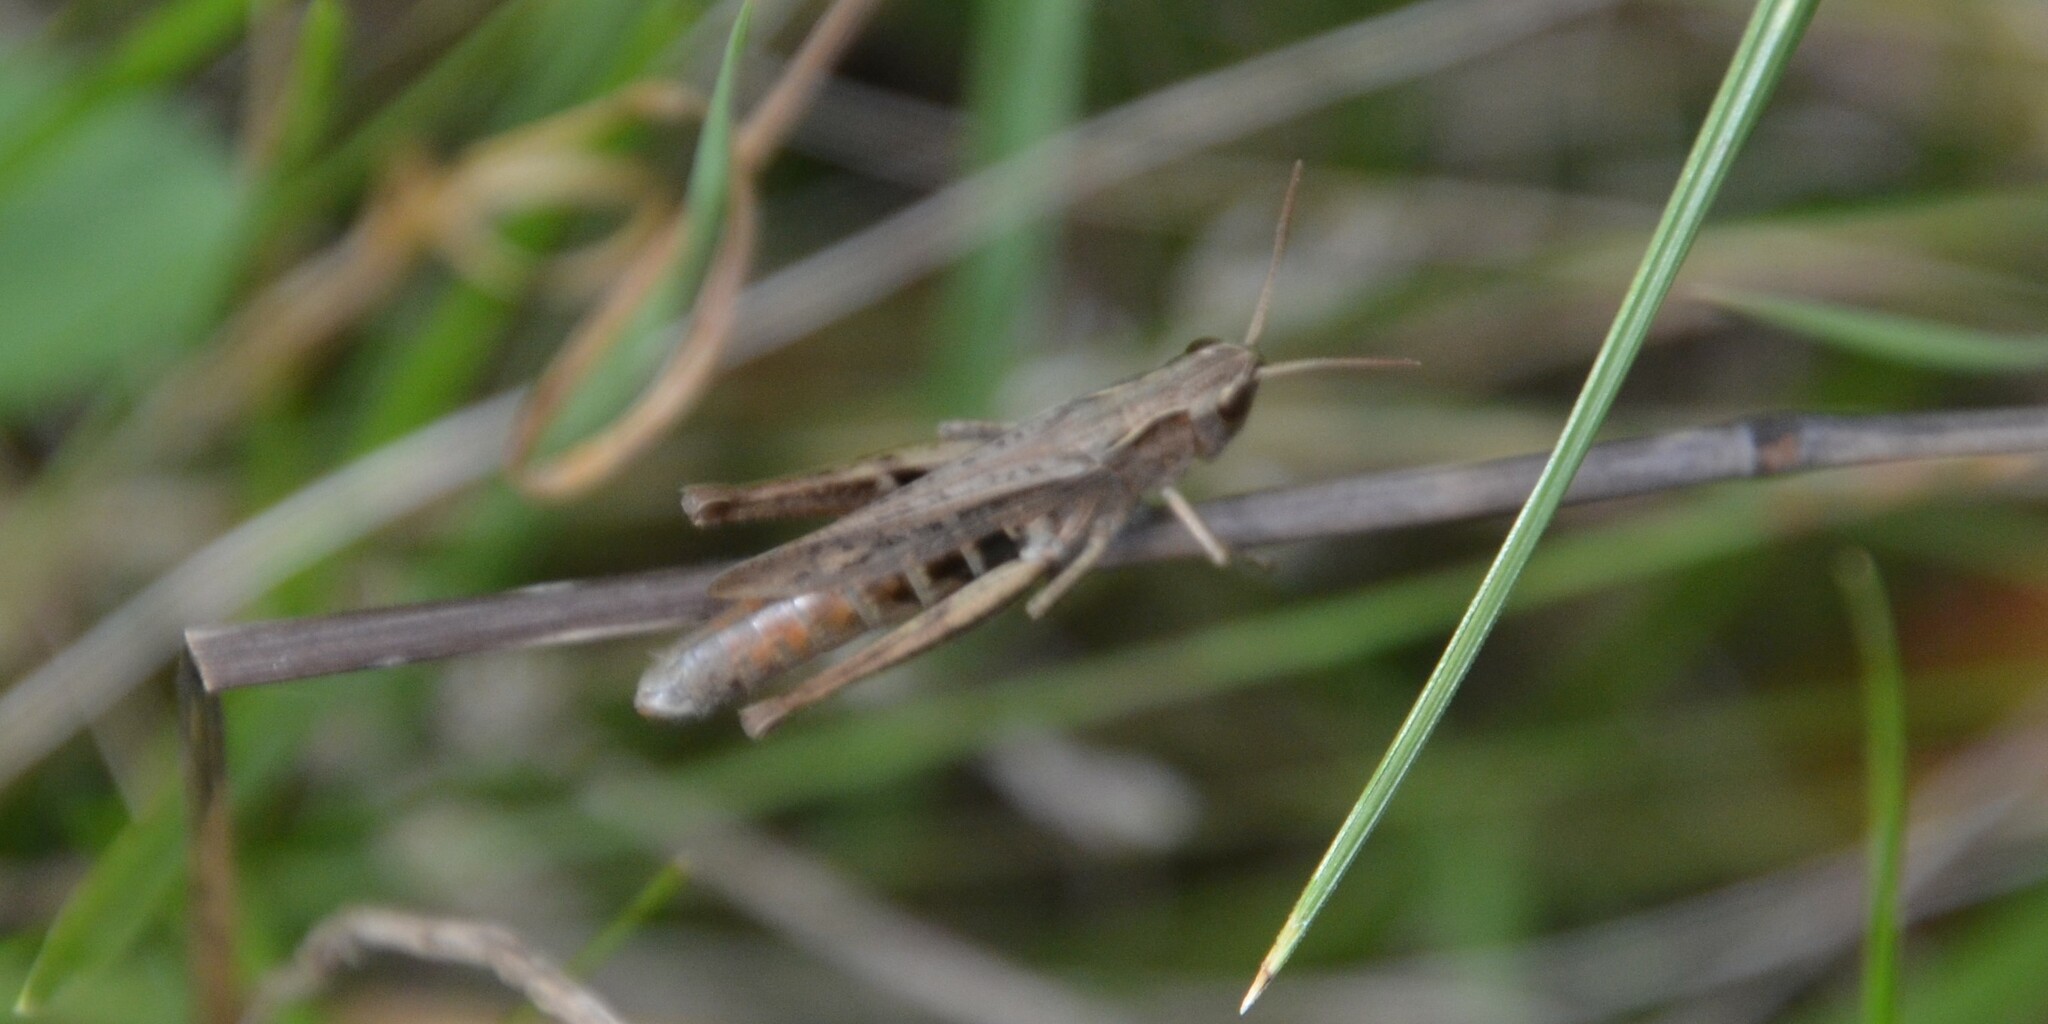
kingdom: Animalia
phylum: Arthropoda
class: Insecta
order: Orthoptera
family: Acrididae
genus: Chorthippus
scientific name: Chorthippus dorsatus
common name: Steppe grasshopper
